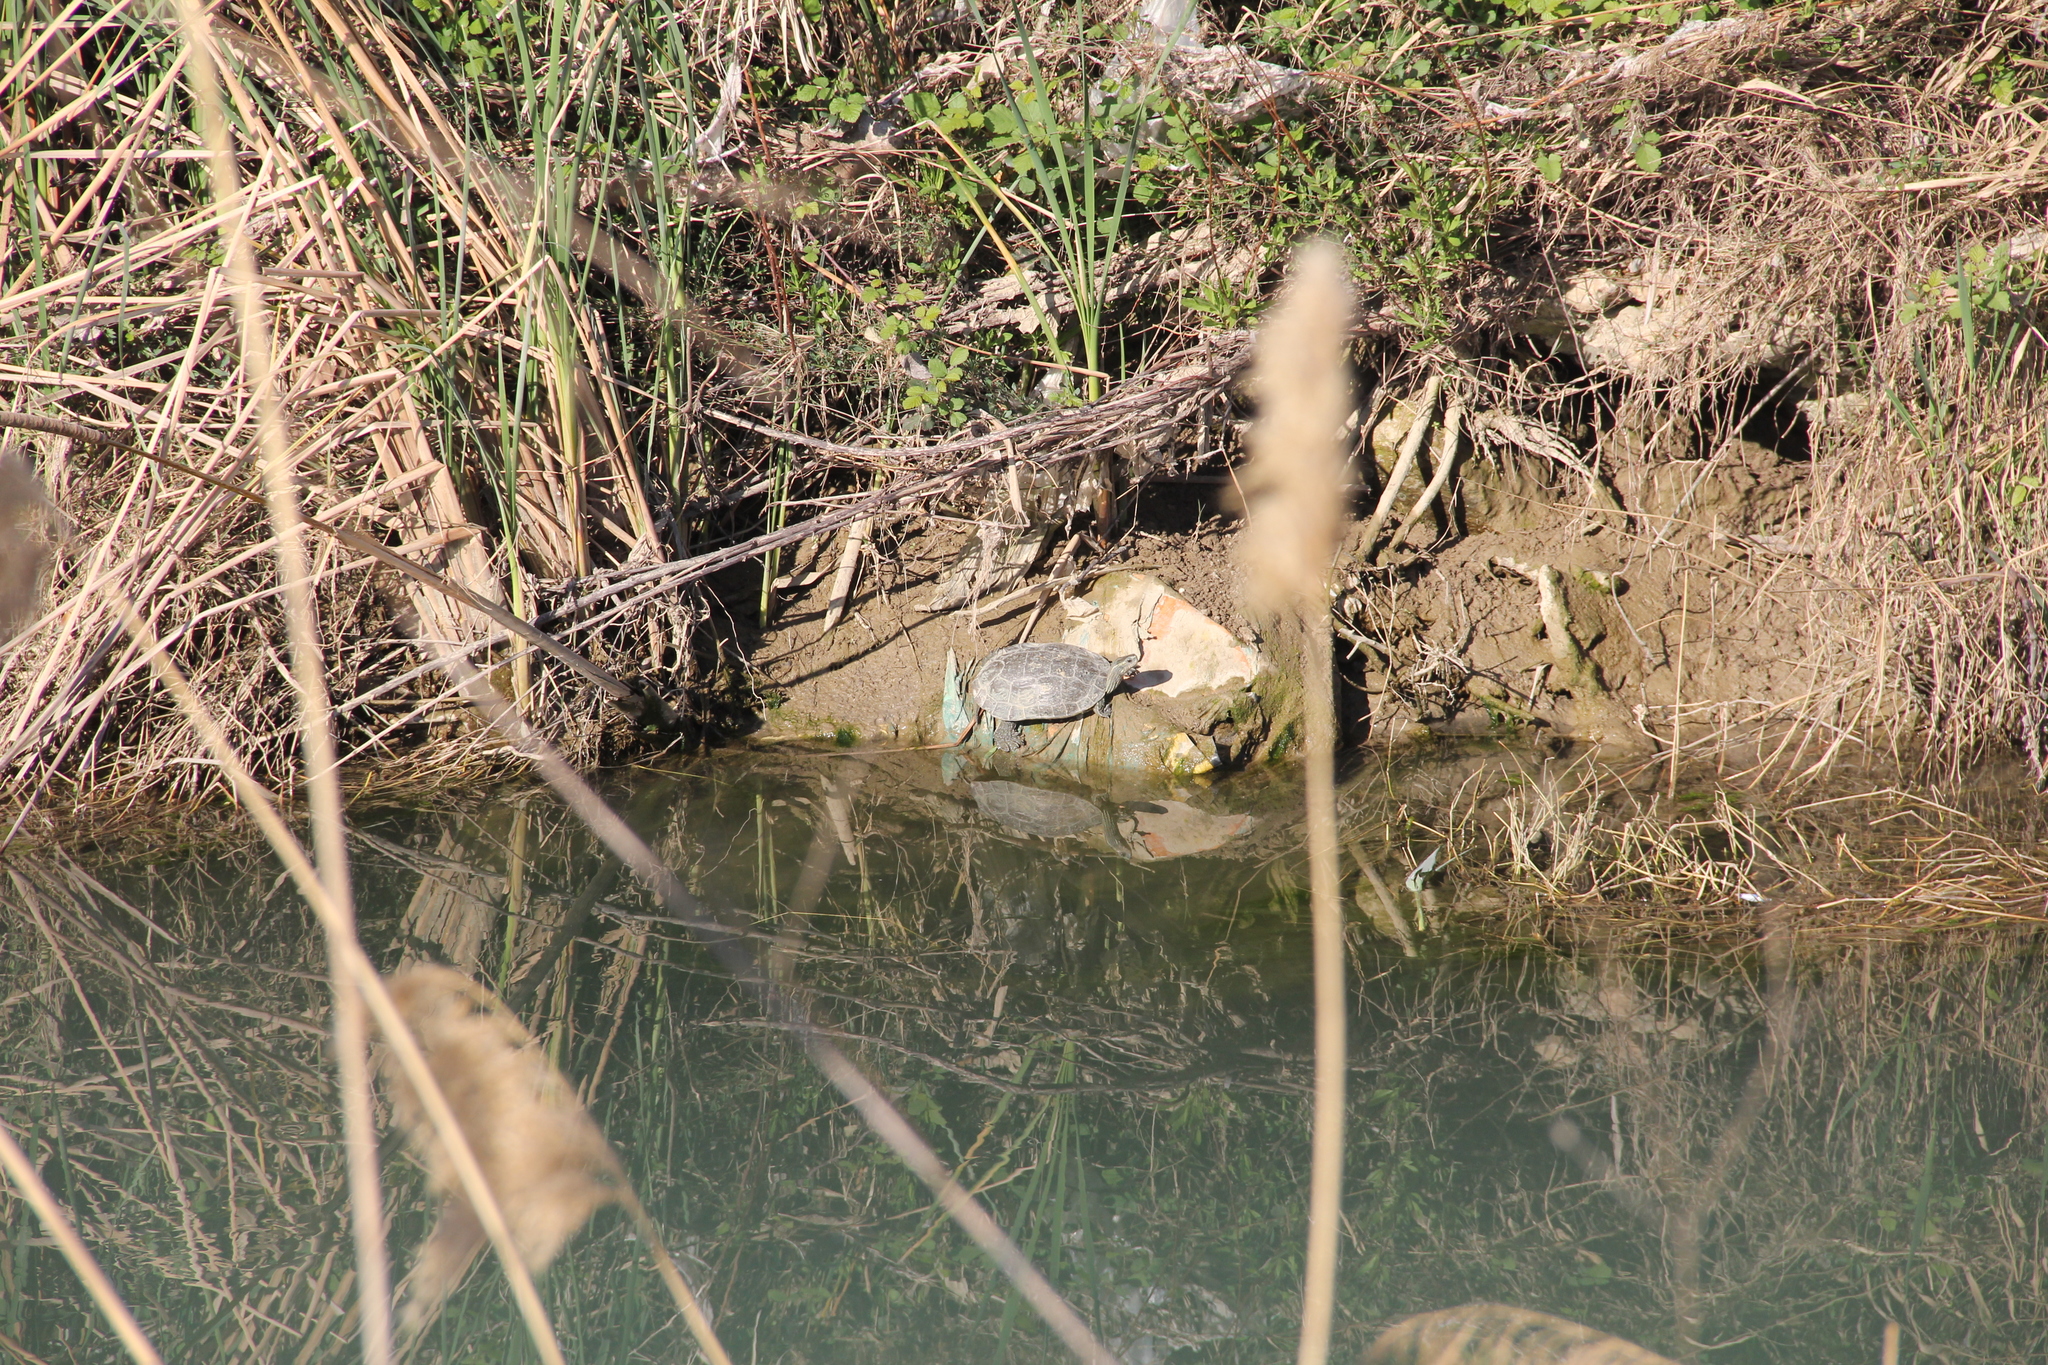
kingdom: Animalia
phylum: Chordata
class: Testudines
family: Geoemydidae
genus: Mauremys
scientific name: Mauremys rivulata
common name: Western caspian turtle
